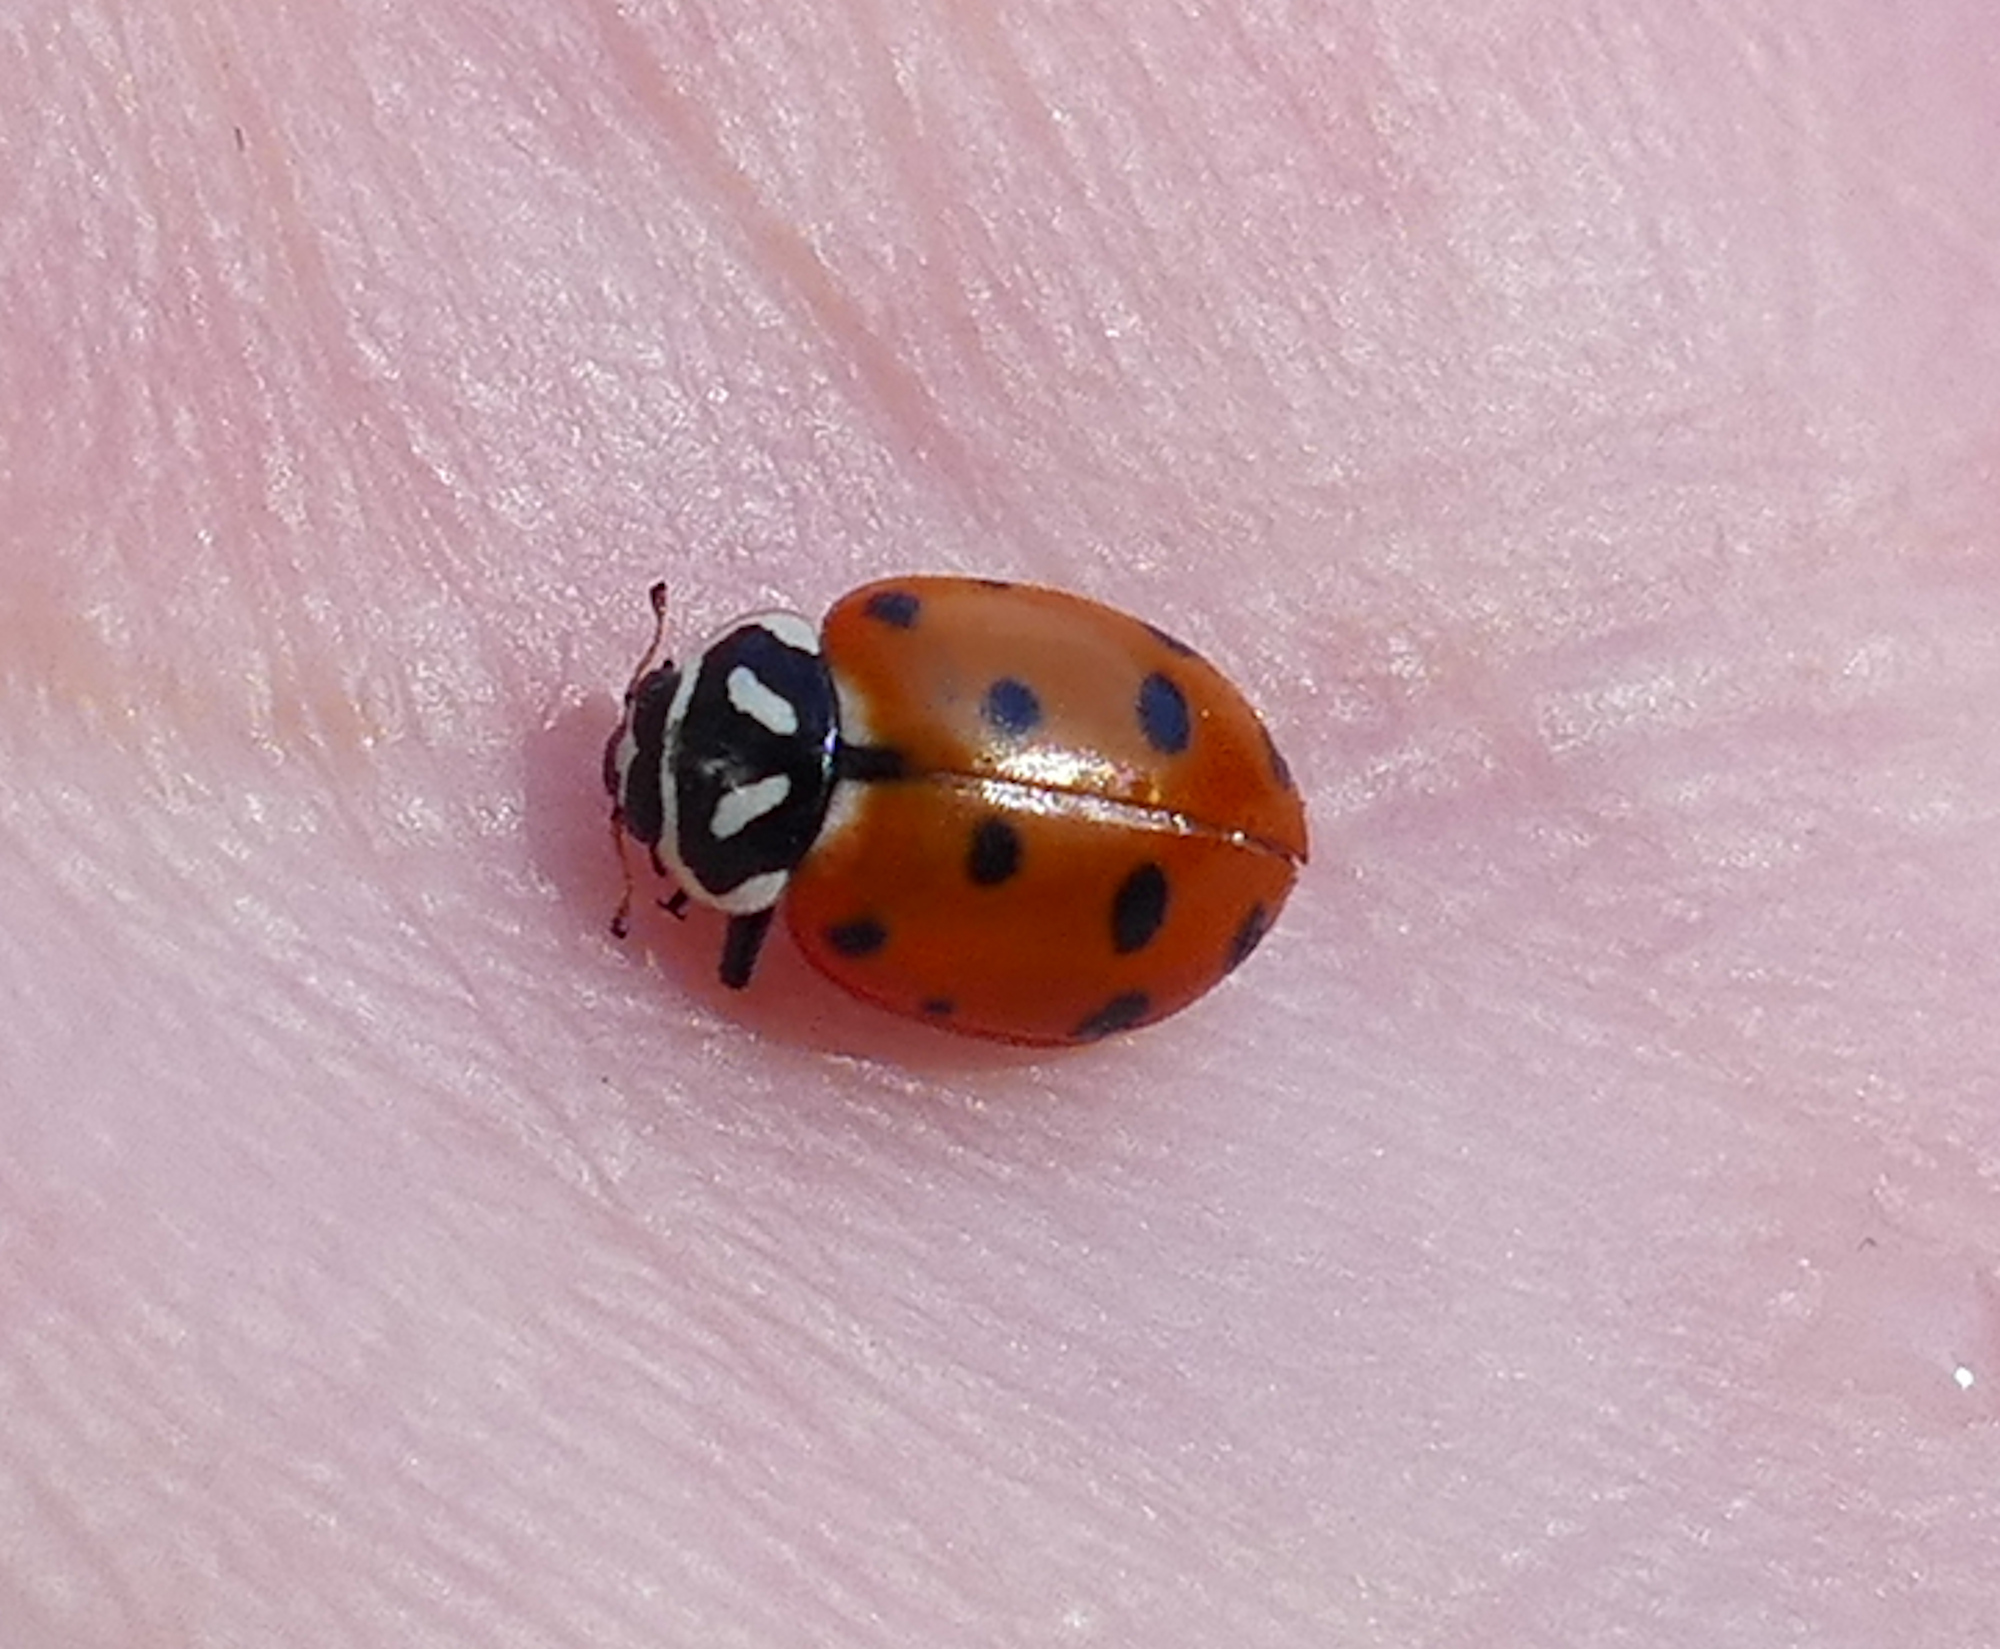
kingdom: Animalia
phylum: Arthropoda
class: Insecta
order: Coleoptera
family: Coccinellidae
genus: Hippodamia
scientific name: Hippodamia convergens
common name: Convergent lady beetle
